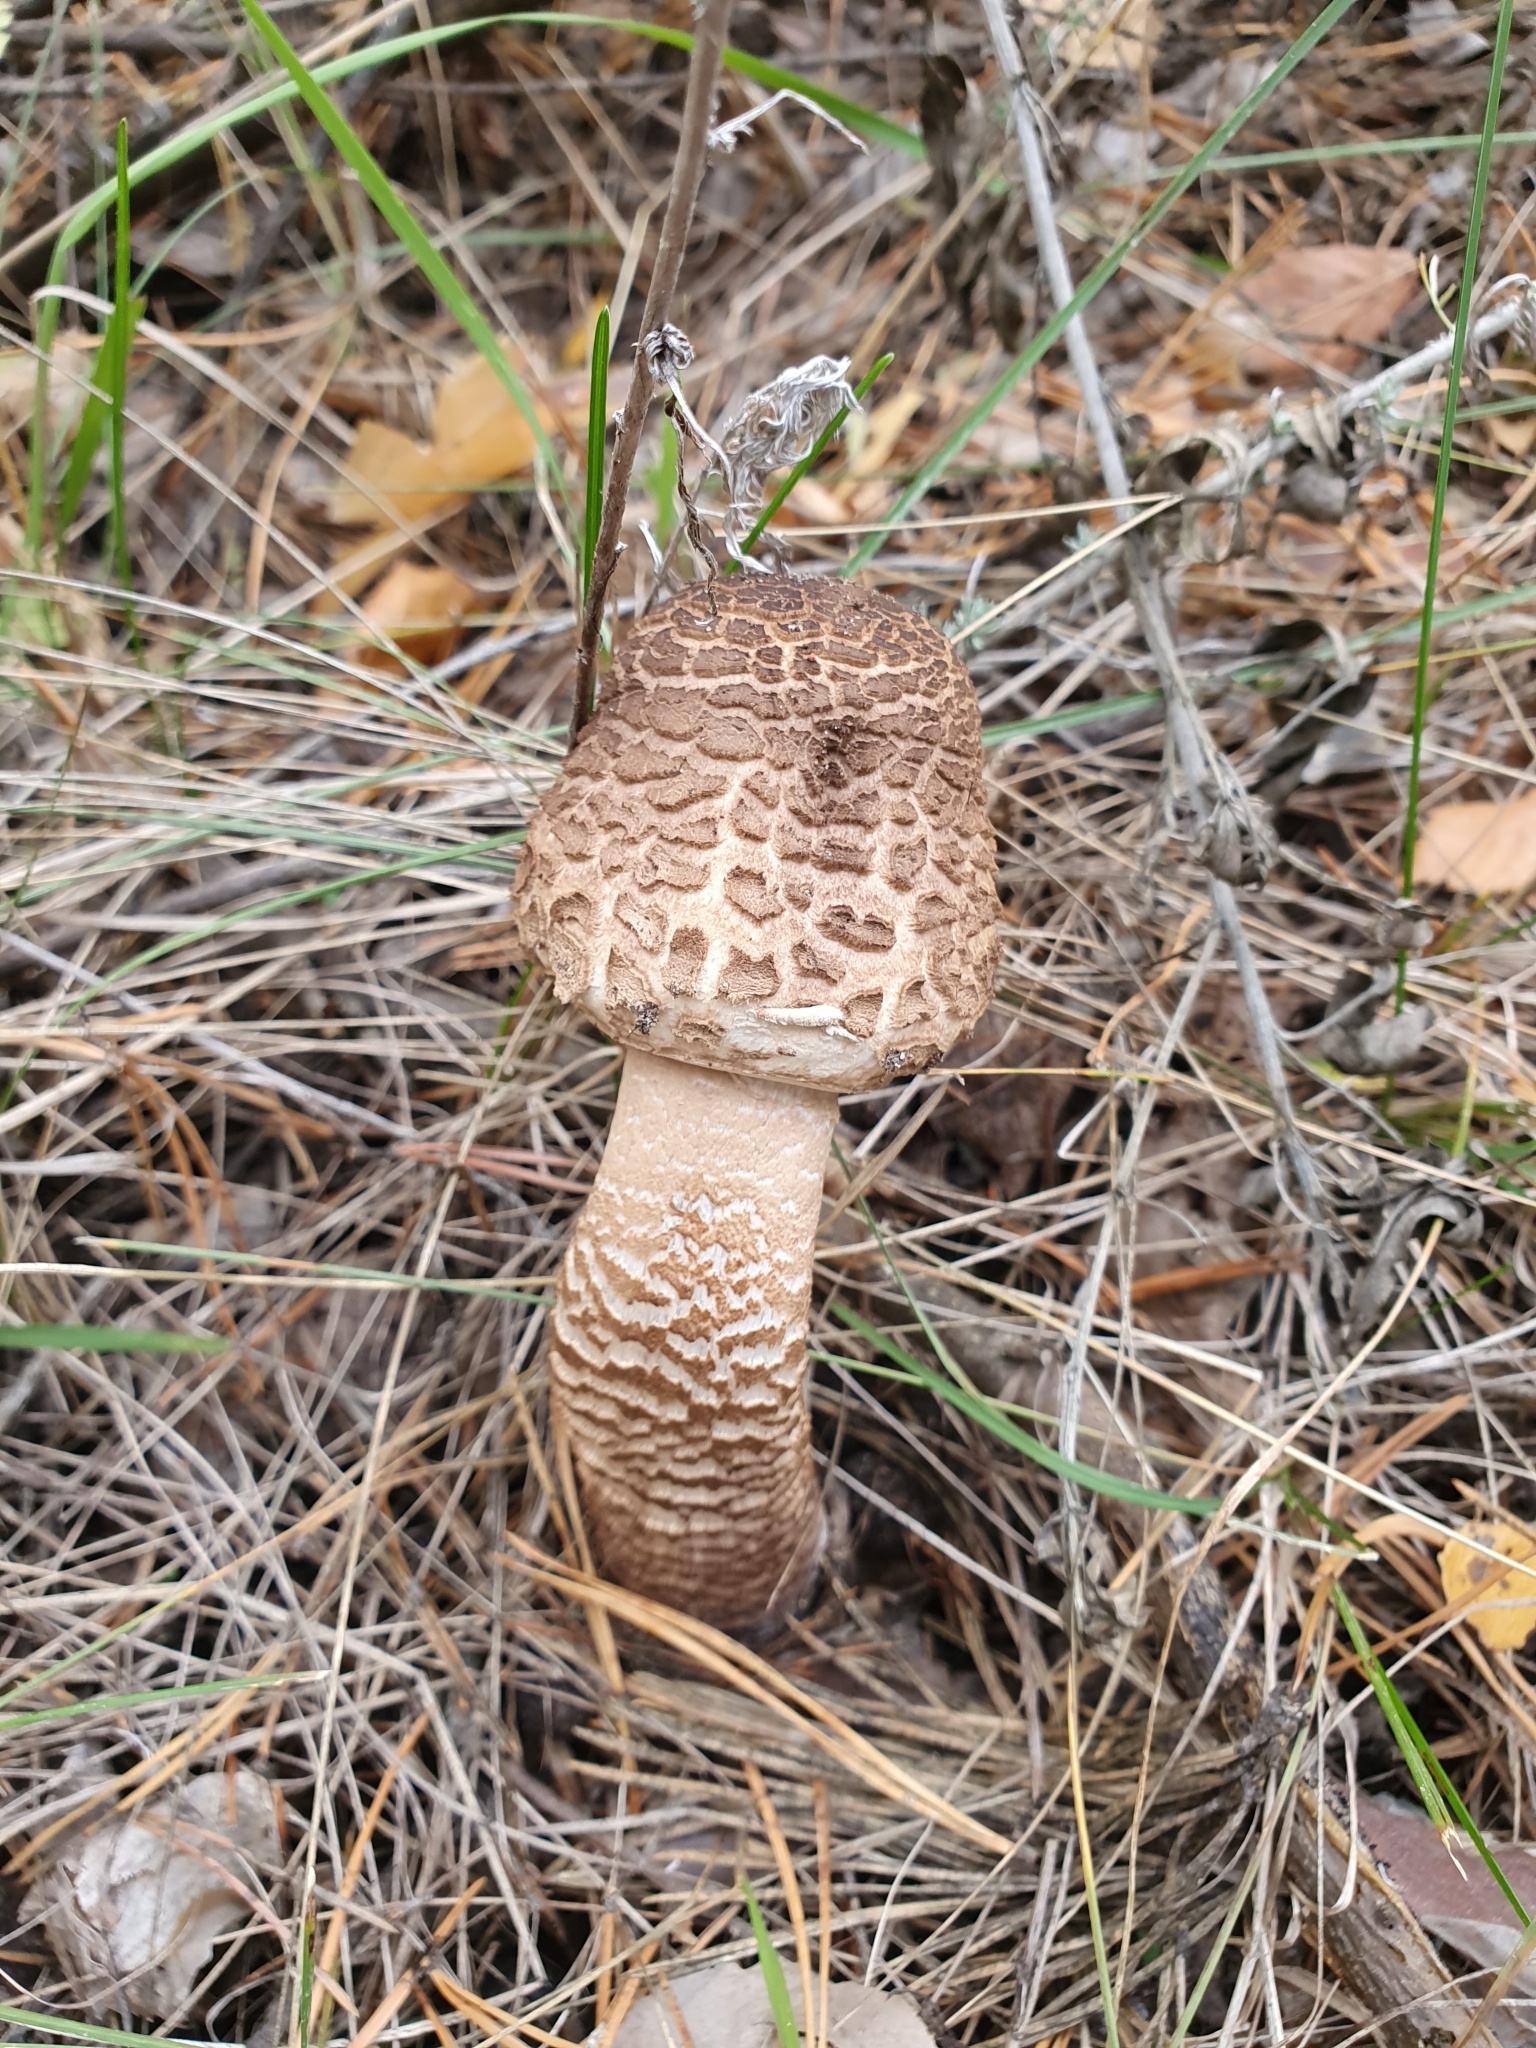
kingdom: Fungi
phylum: Basidiomycota
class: Agaricomycetes
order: Agaricales
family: Agaricaceae
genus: Macrolepiota
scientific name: Macrolepiota procera
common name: Parasol
